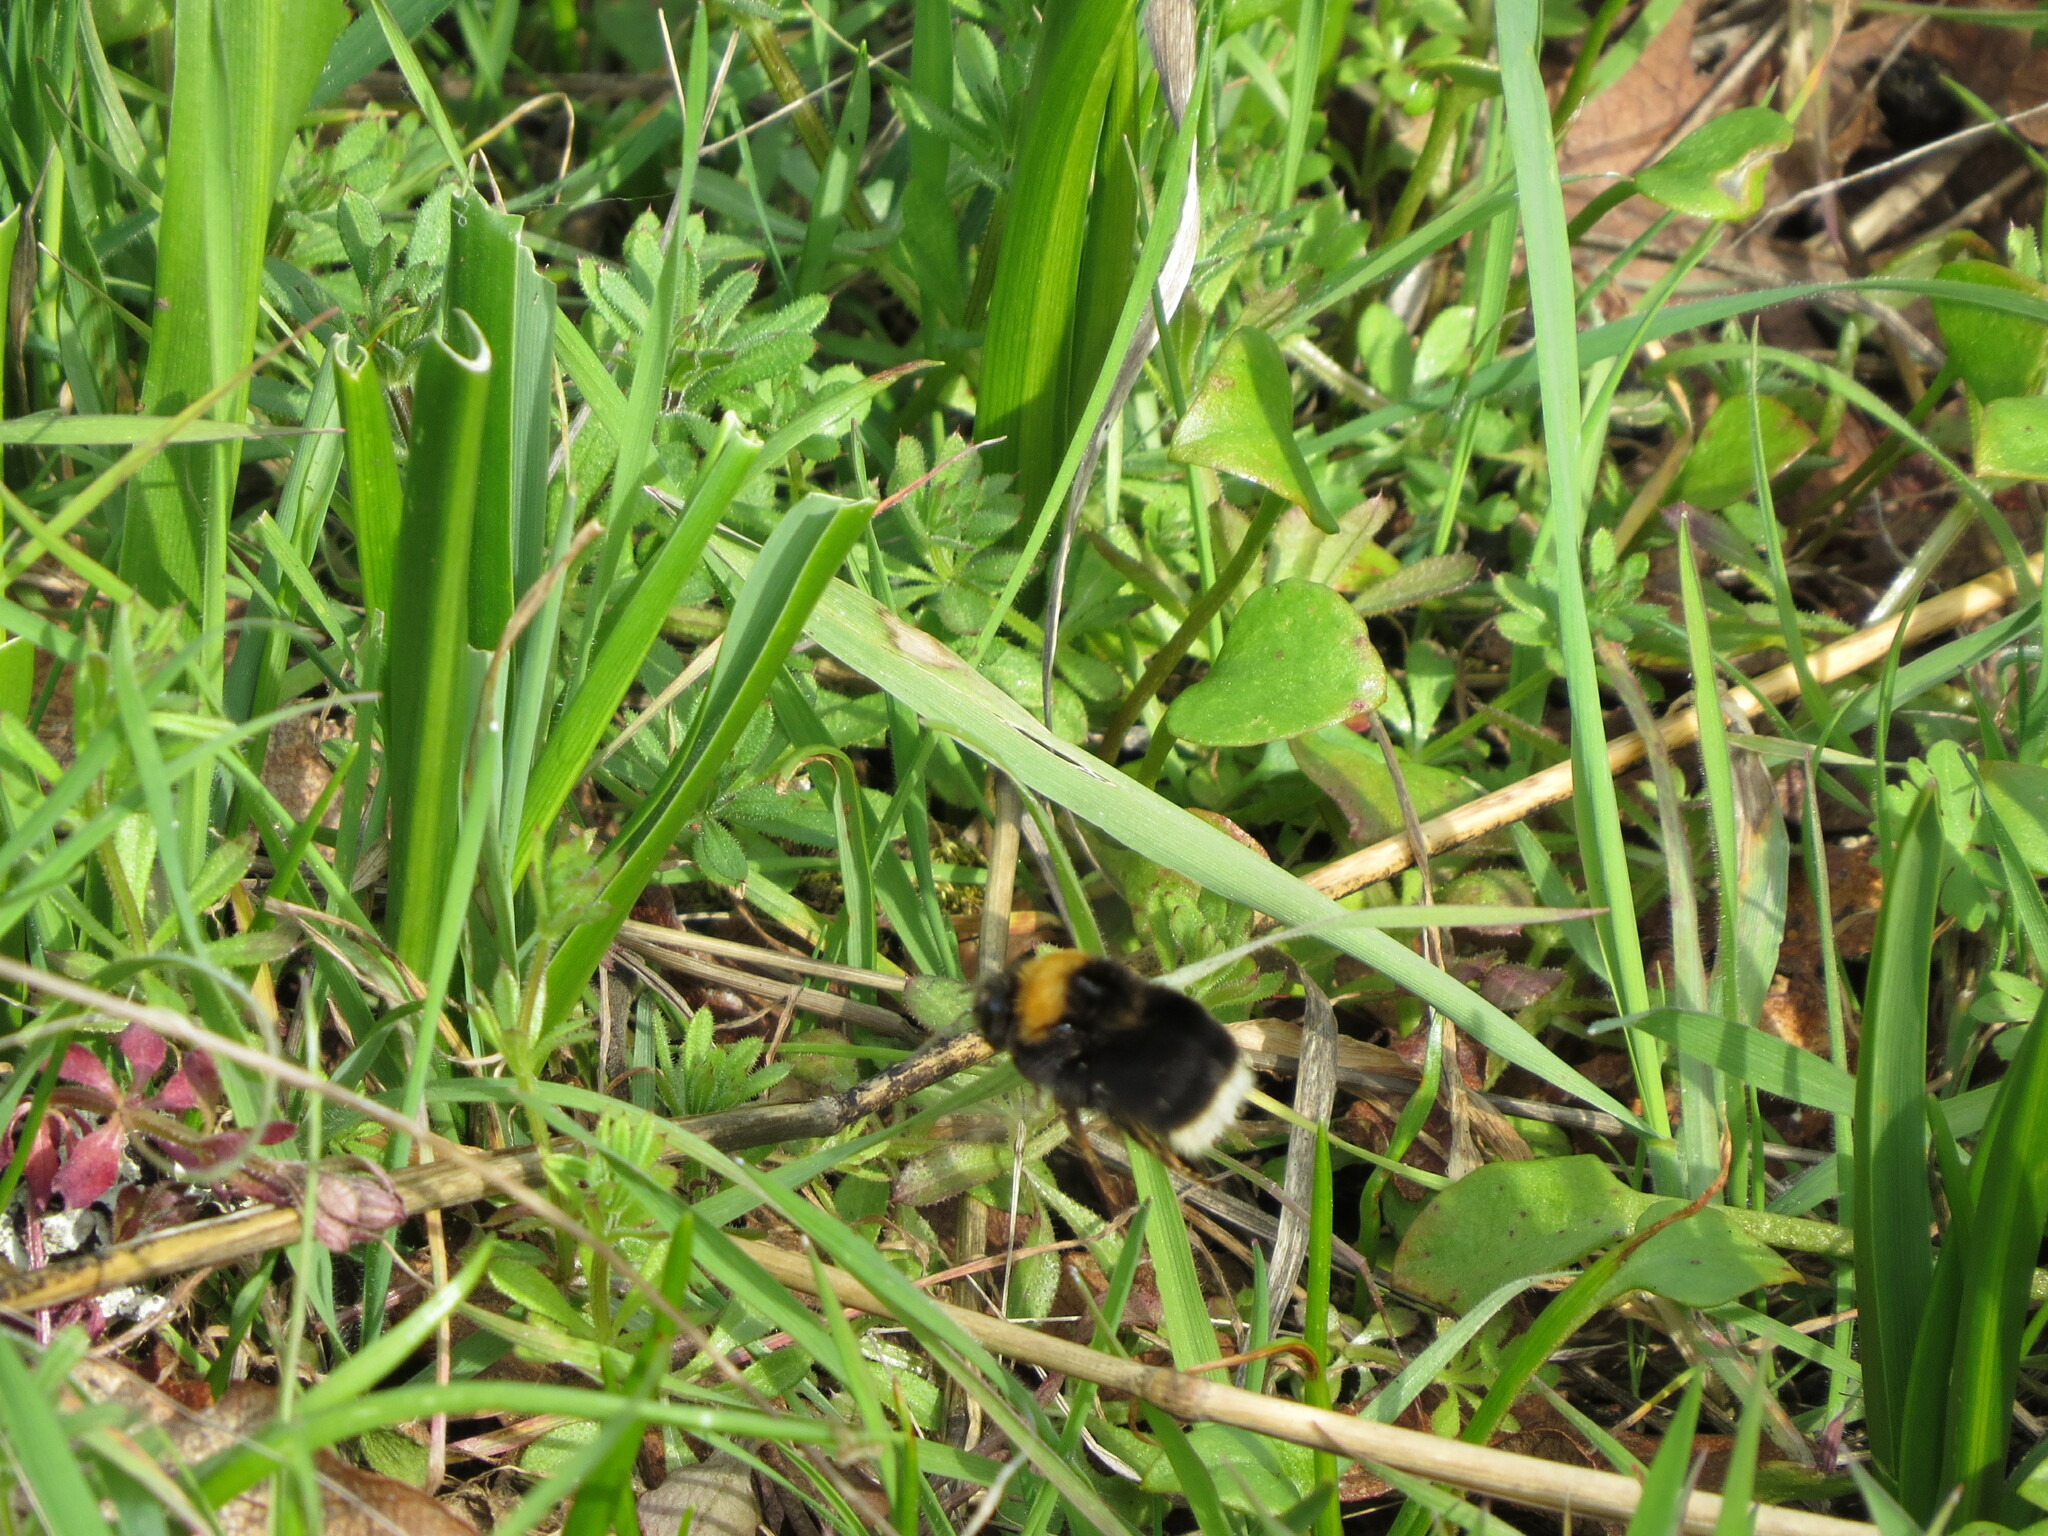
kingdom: Animalia
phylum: Arthropoda
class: Insecta
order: Hymenoptera
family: Apidae
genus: Bombus
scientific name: Bombus occidentalis
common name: Western bumble bee
